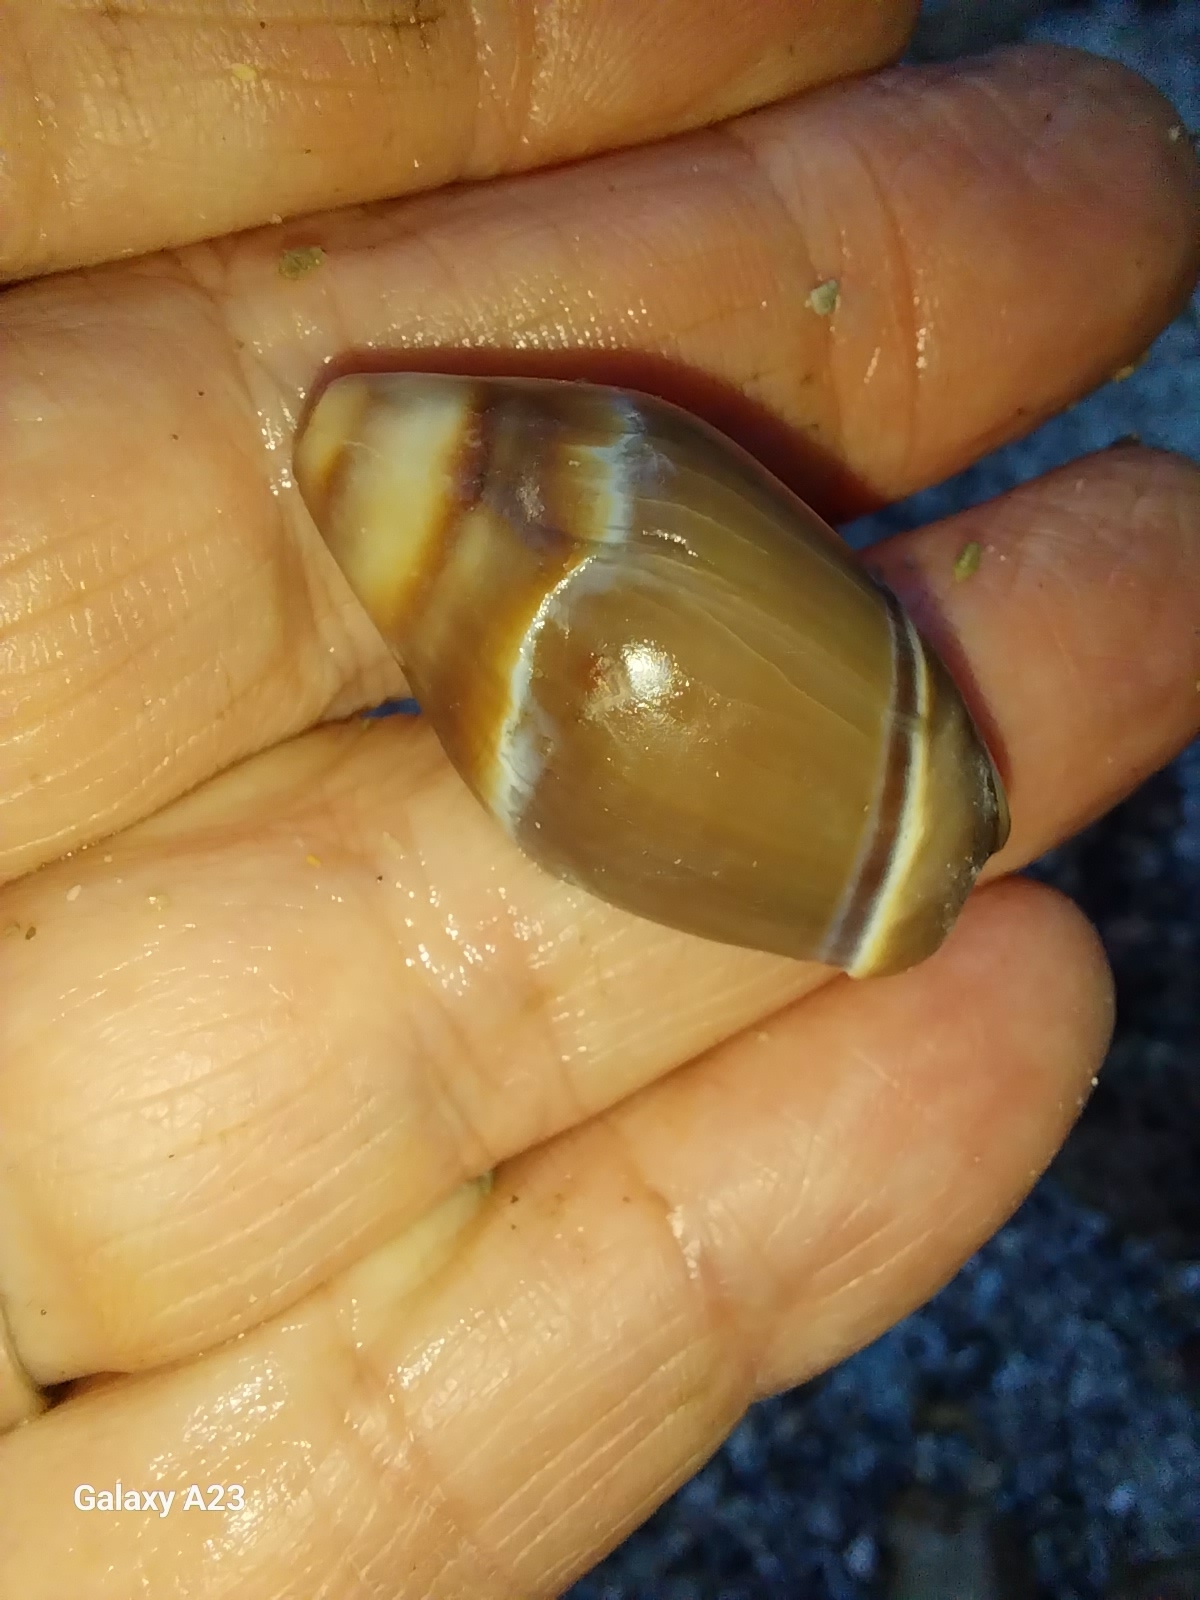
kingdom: Animalia
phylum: Mollusca
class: Gastropoda
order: Neogastropoda
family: Ancillariidae
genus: Amalda
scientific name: Amalda australis
